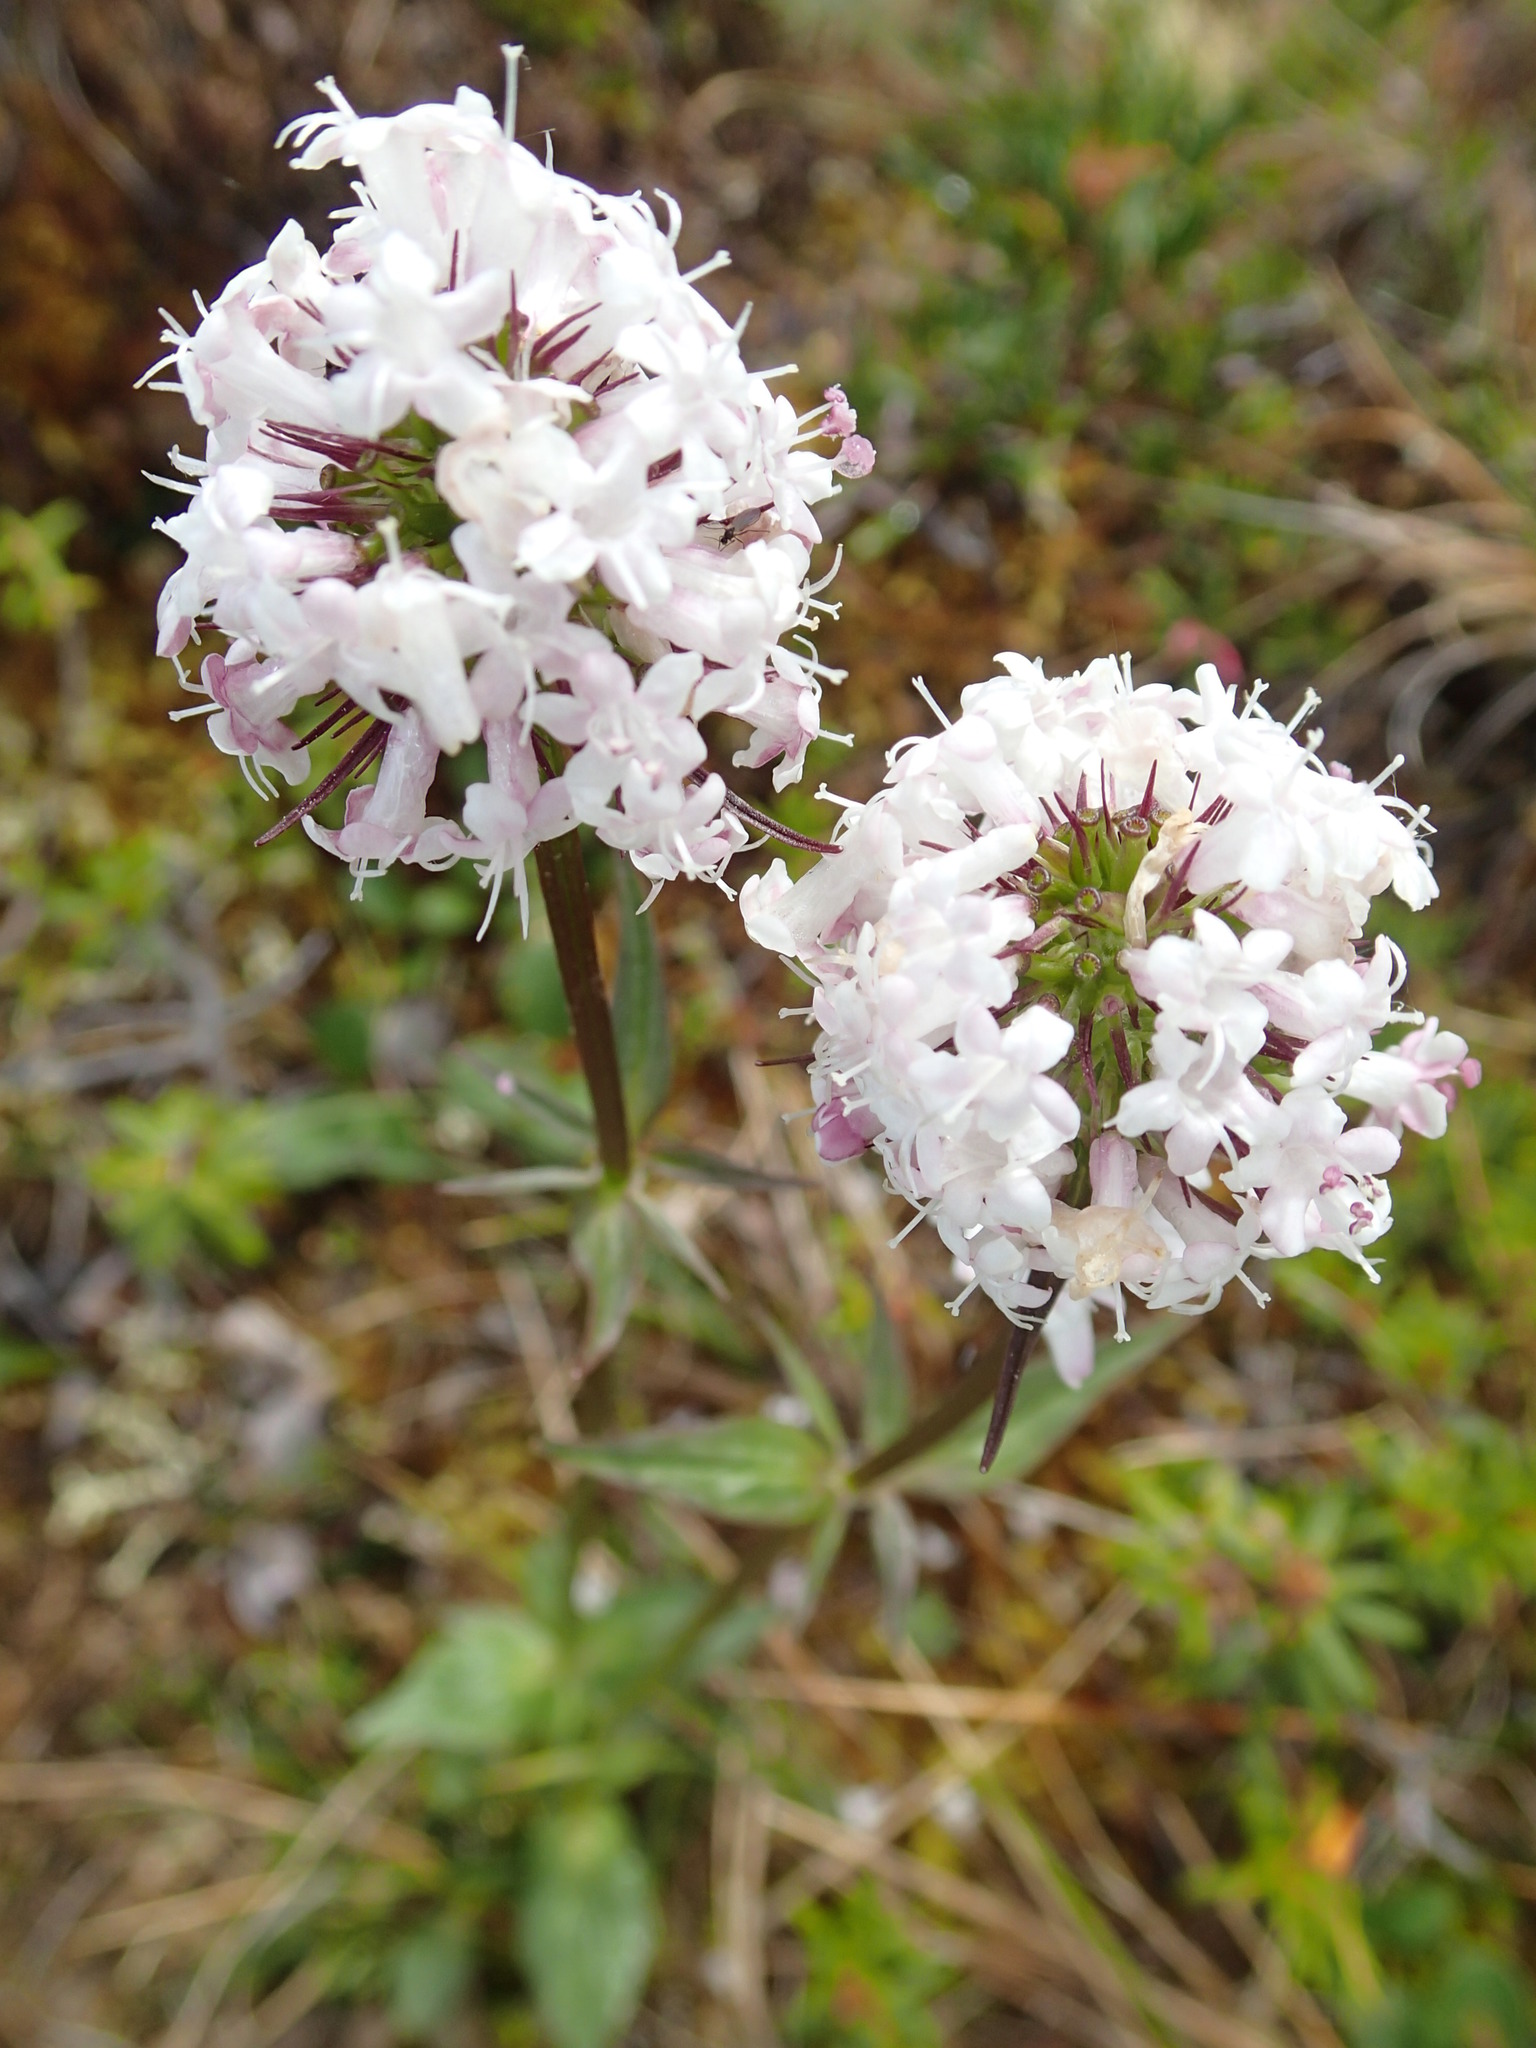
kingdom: Plantae
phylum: Tracheophyta
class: Magnoliopsida
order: Dipsacales
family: Caprifoliaceae
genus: Valeriana
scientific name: Valeriana capitata
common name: Capitate valerian
